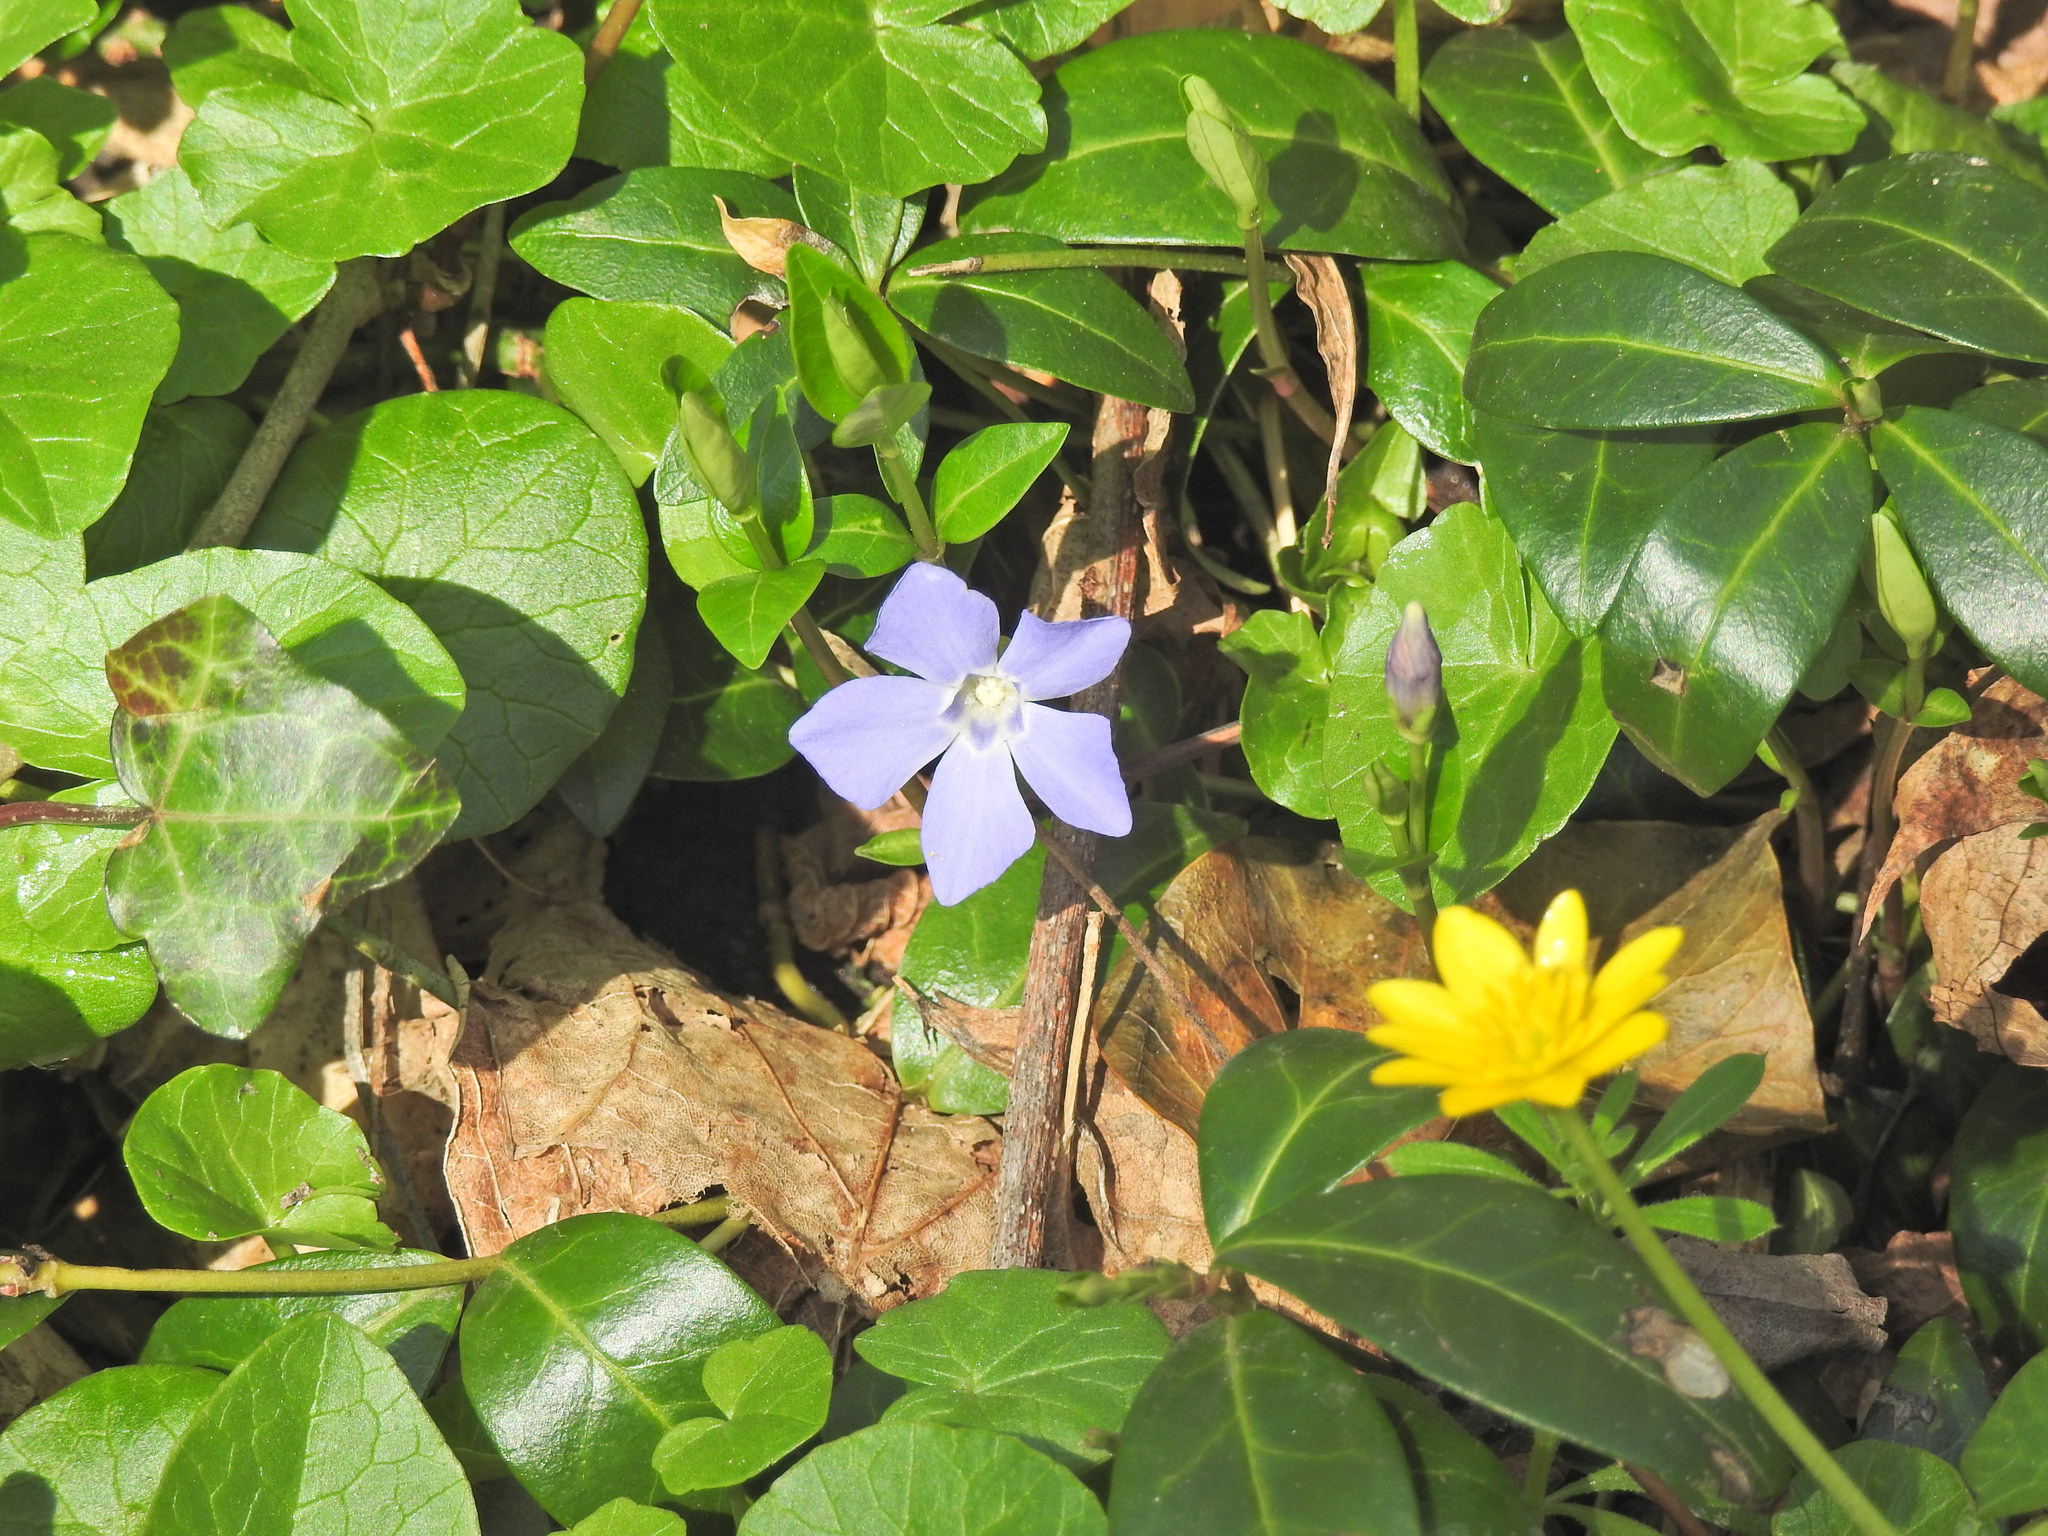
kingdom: Plantae
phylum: Tracheophyta
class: Magnoliopsida
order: Gentianales
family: Apocynaceae
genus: Vinca
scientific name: Vinca minor
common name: Lesser periwinkle
